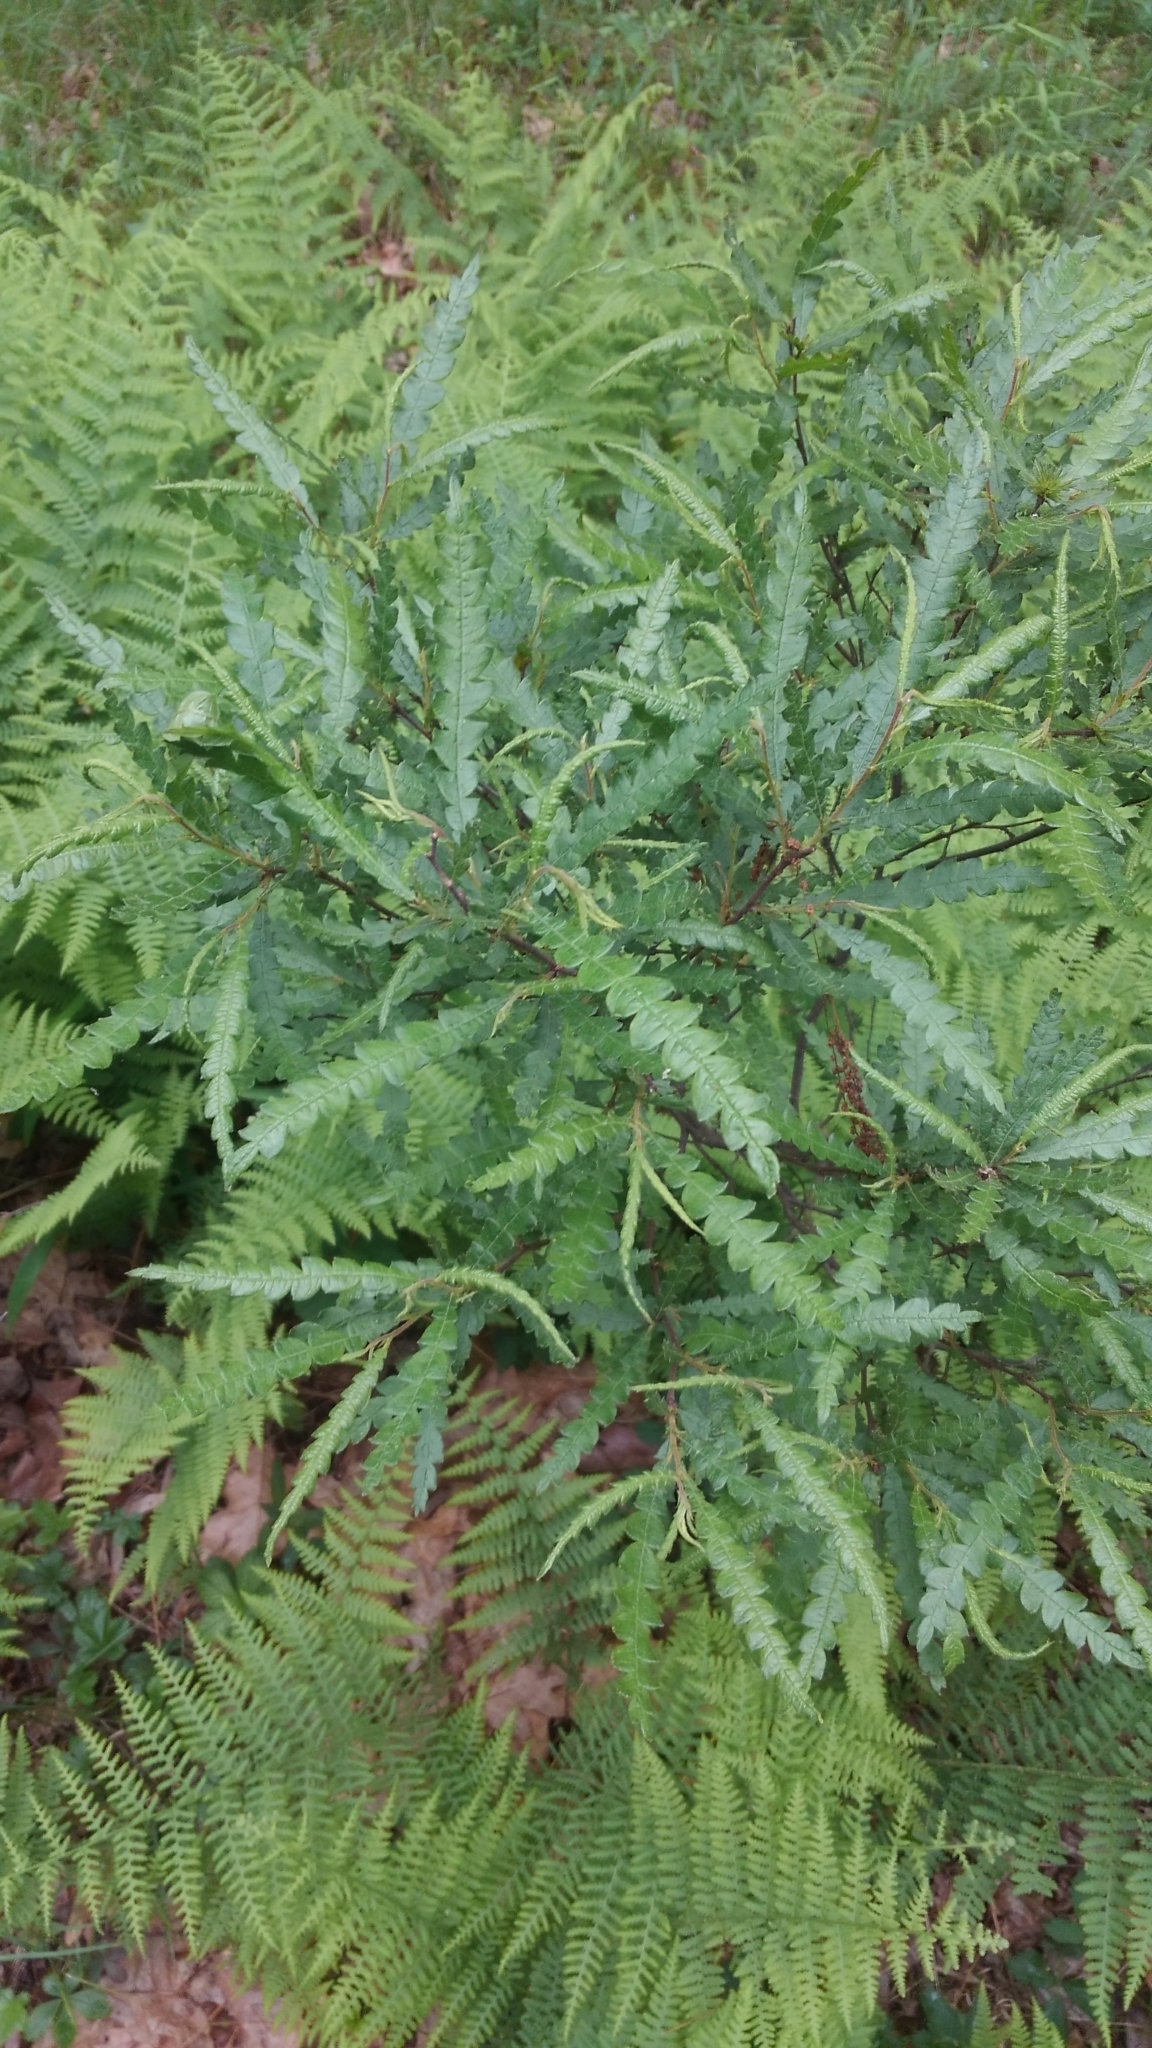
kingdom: Plantae
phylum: Tracheophyta
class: Magnoliopsida
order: Fagales
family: Myricaceae
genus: Comptonia
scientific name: Comptonia peregrina
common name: Sweet-fern
